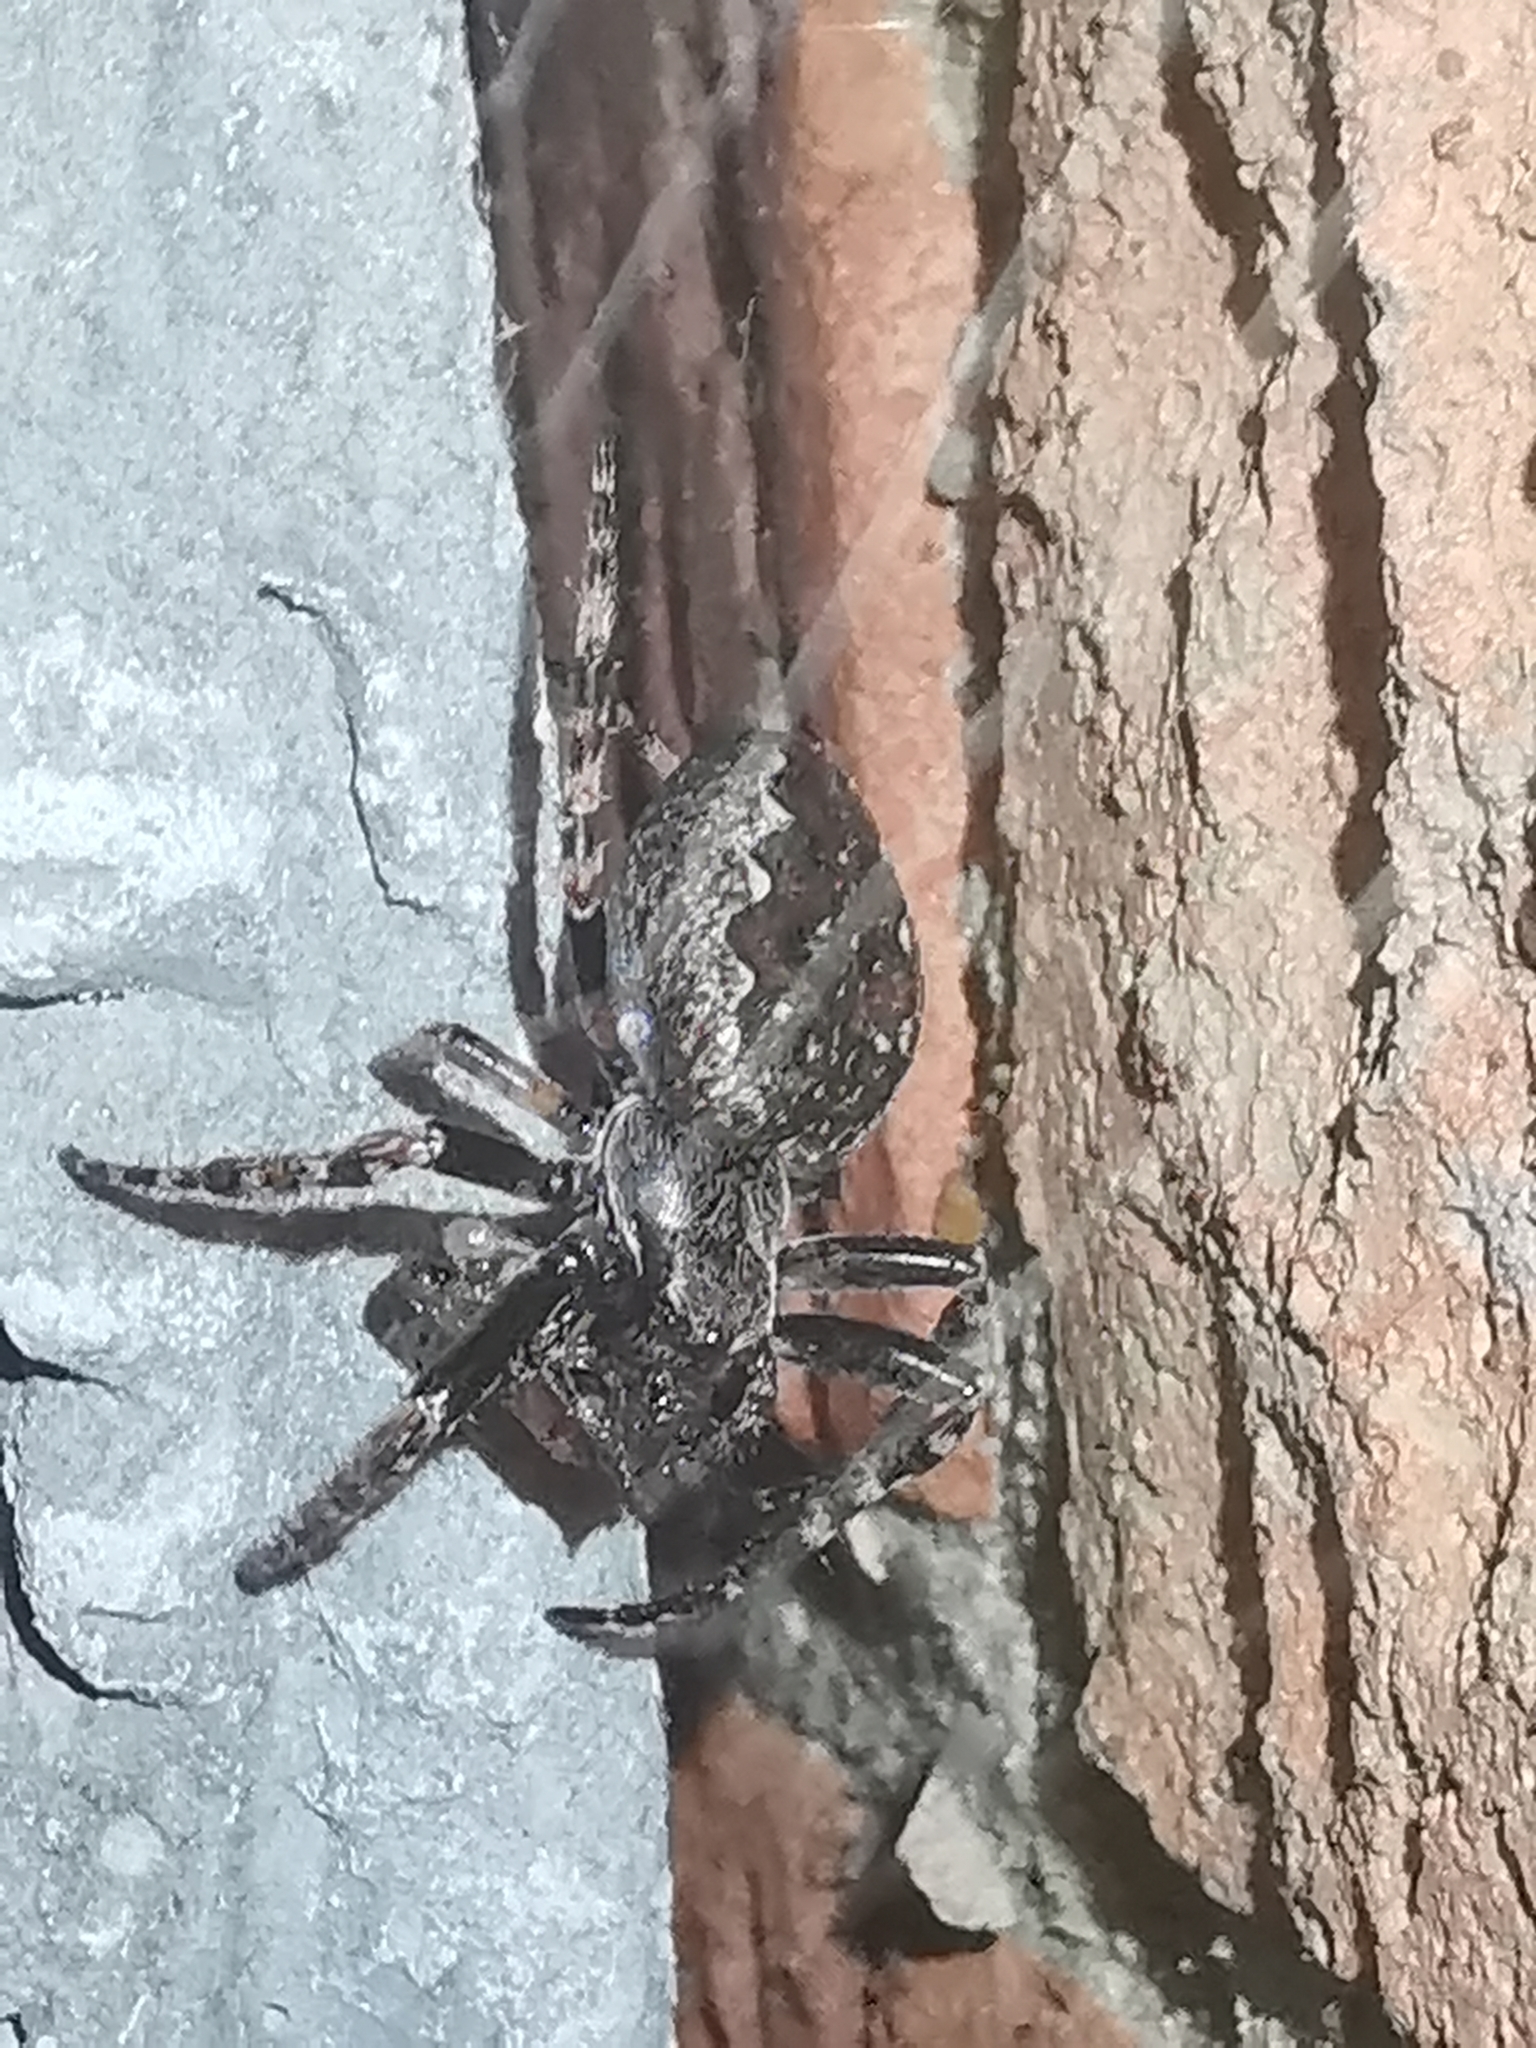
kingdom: Animalia
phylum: Arthropoda
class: Arachnida
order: Araneae
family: Araneidae
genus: Nuctenea
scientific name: Nuctenea umbratica
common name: Toad spider
